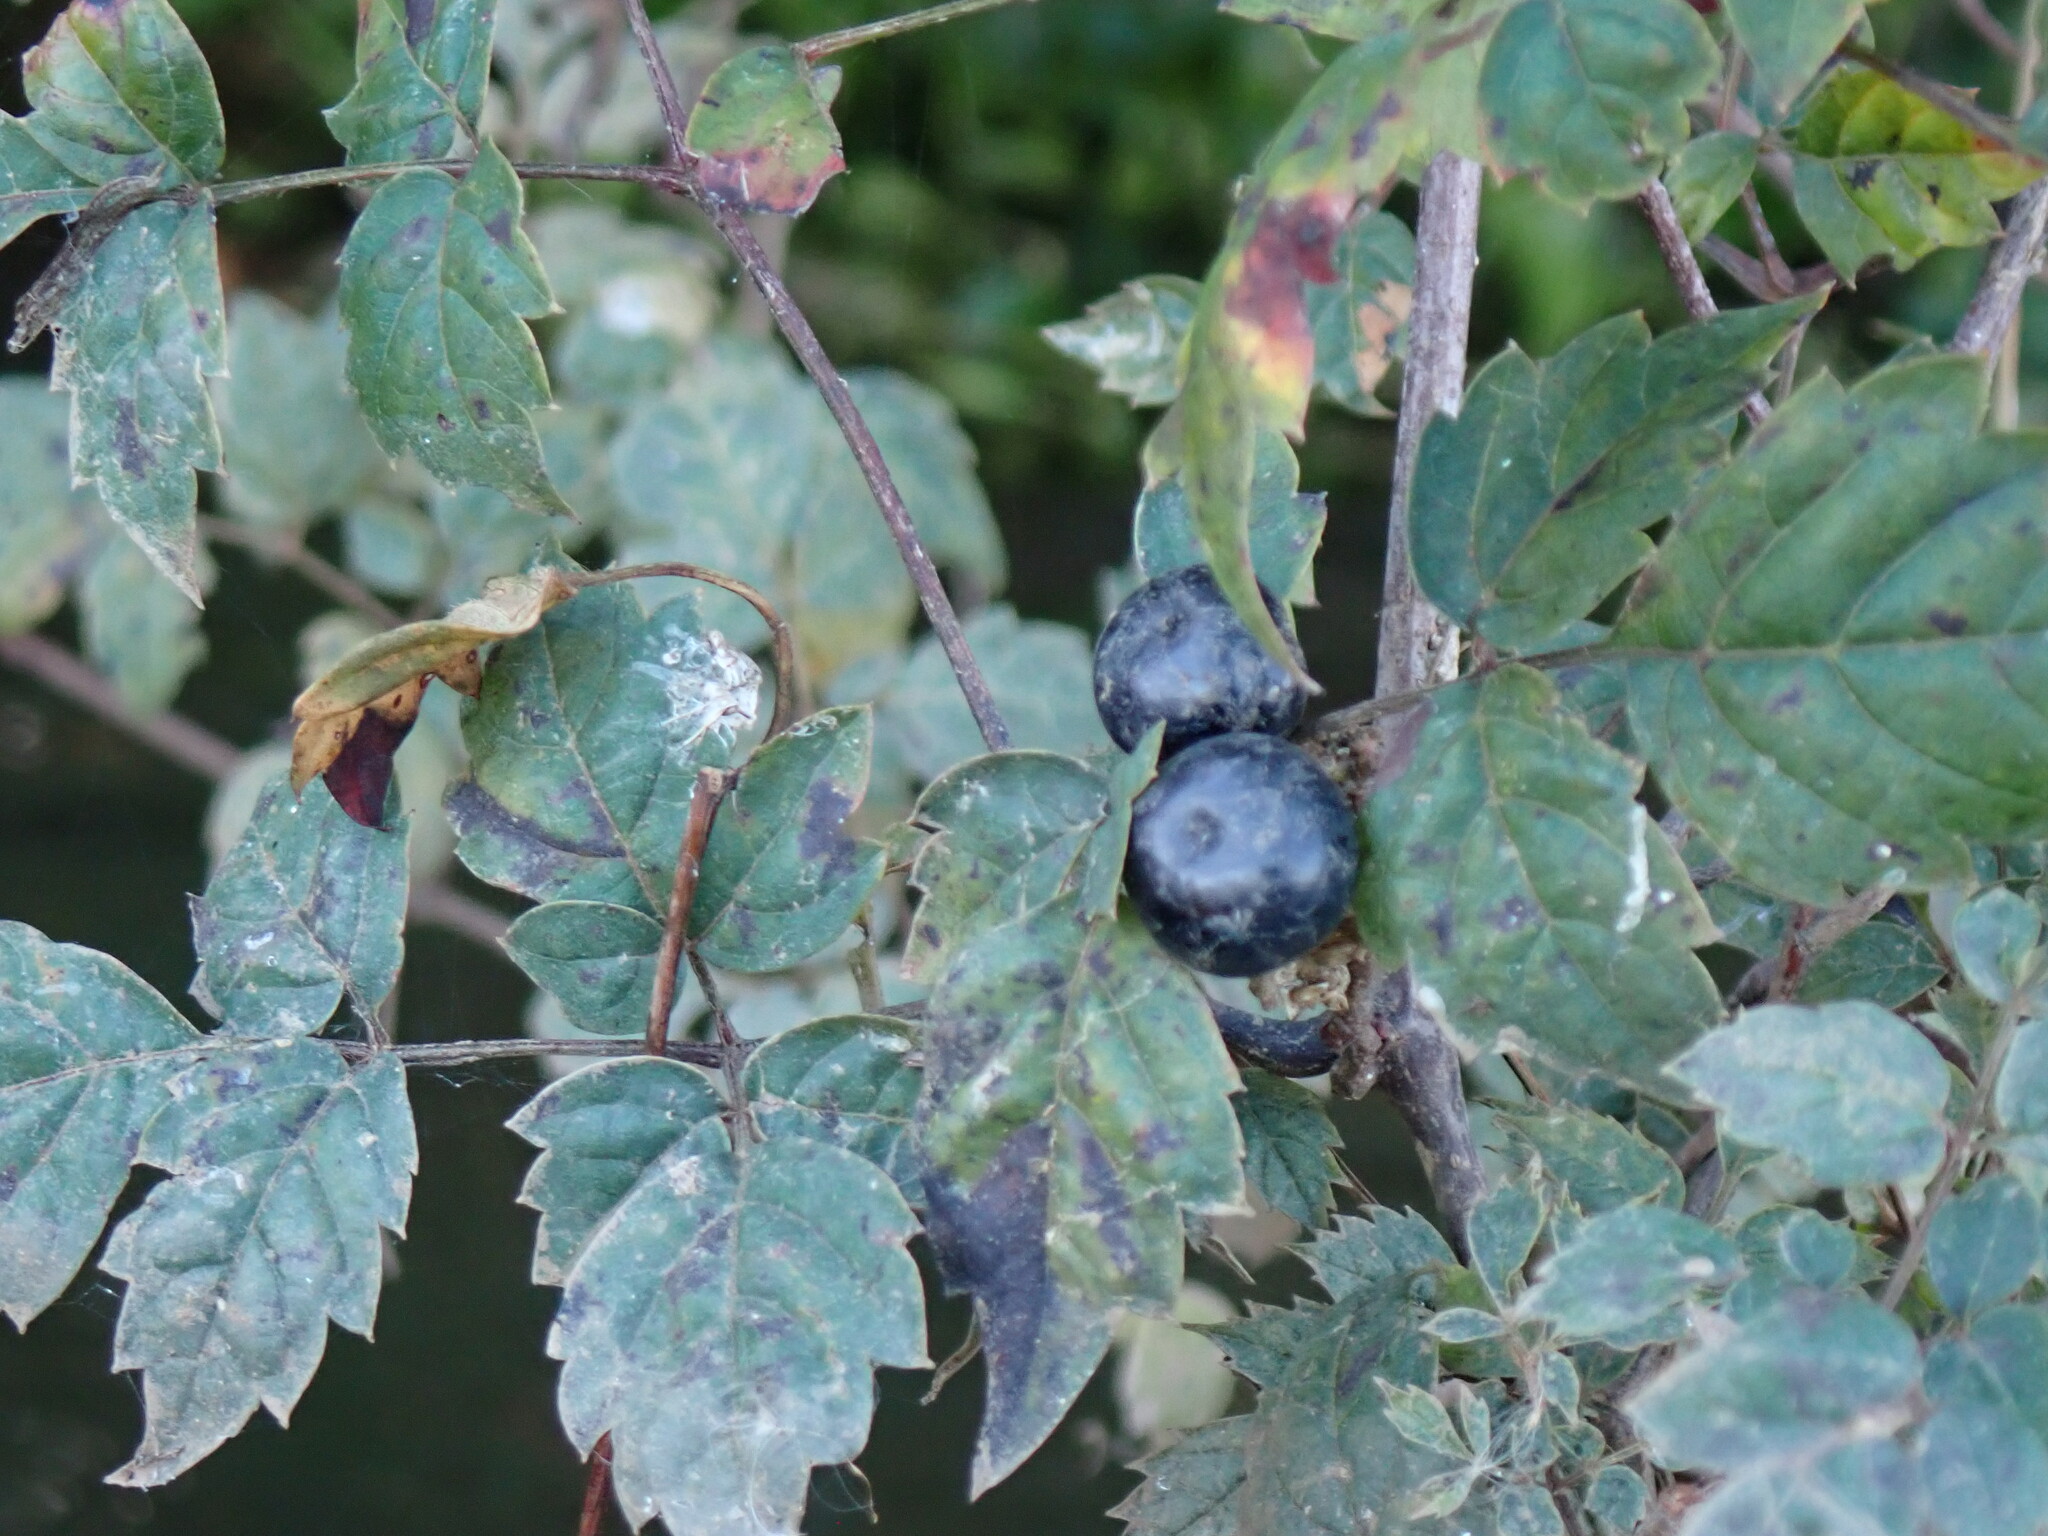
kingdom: Plantae
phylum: Tracheophyta
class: Magnoliopsida
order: Vitales
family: Vitaceae
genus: Nekemias
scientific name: Nekemias arborea
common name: Peppervine
